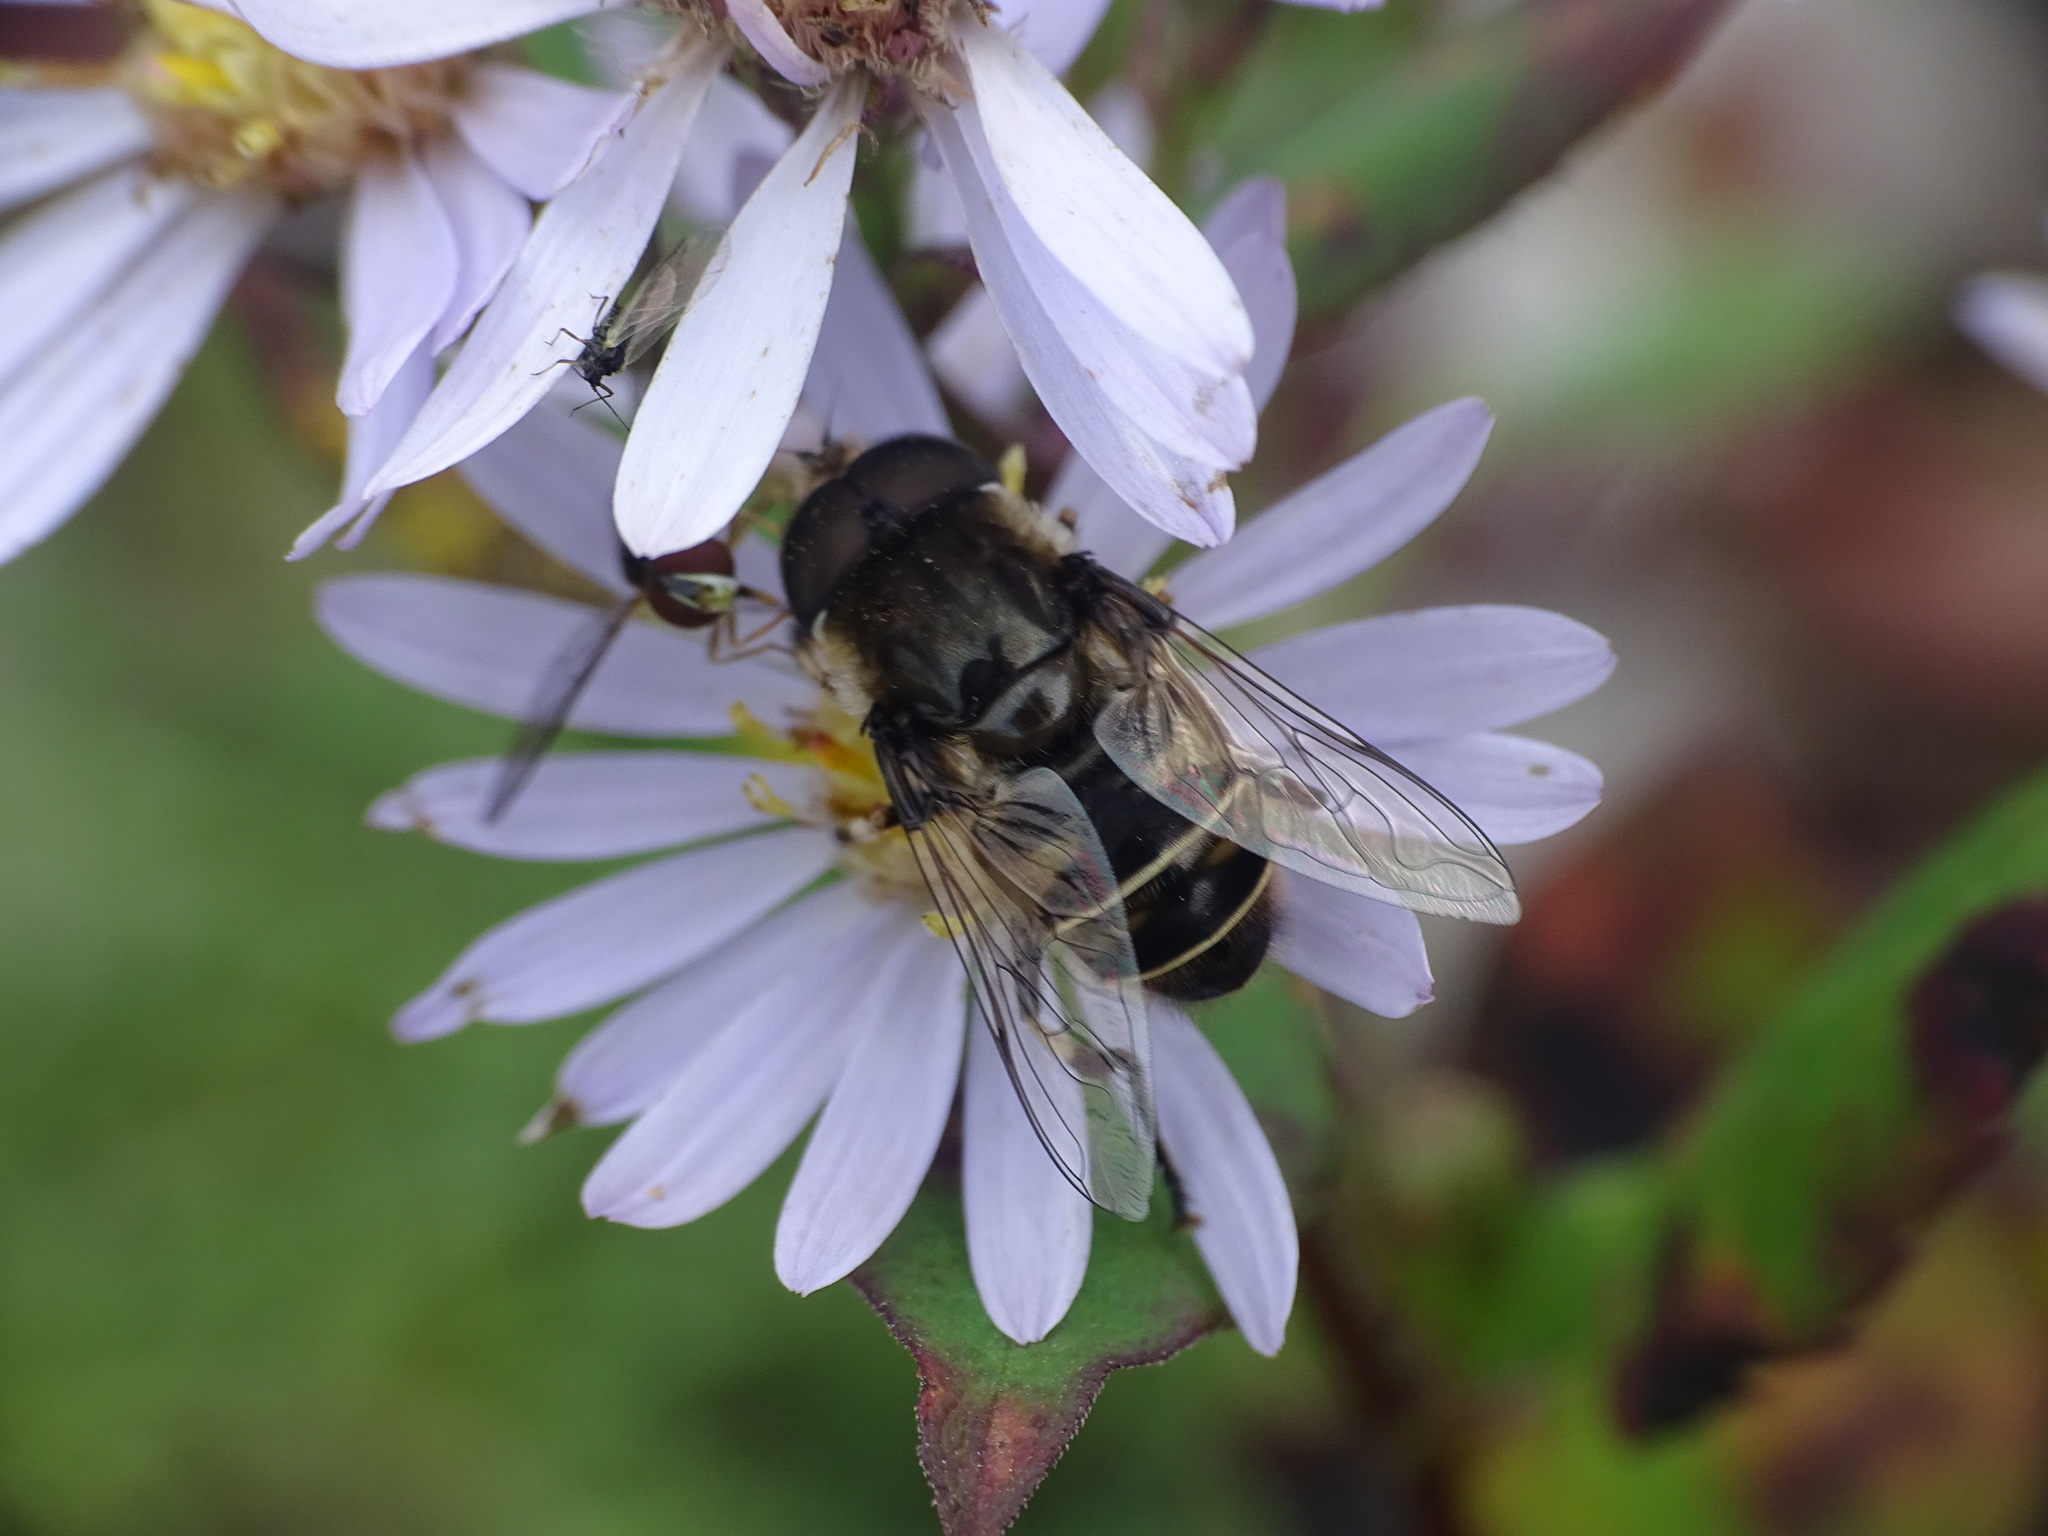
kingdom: Animalia
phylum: Arthropoda
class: Insecta
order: Diptera
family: Syrphidae
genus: Eristalis
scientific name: Eristalis dimidiata
